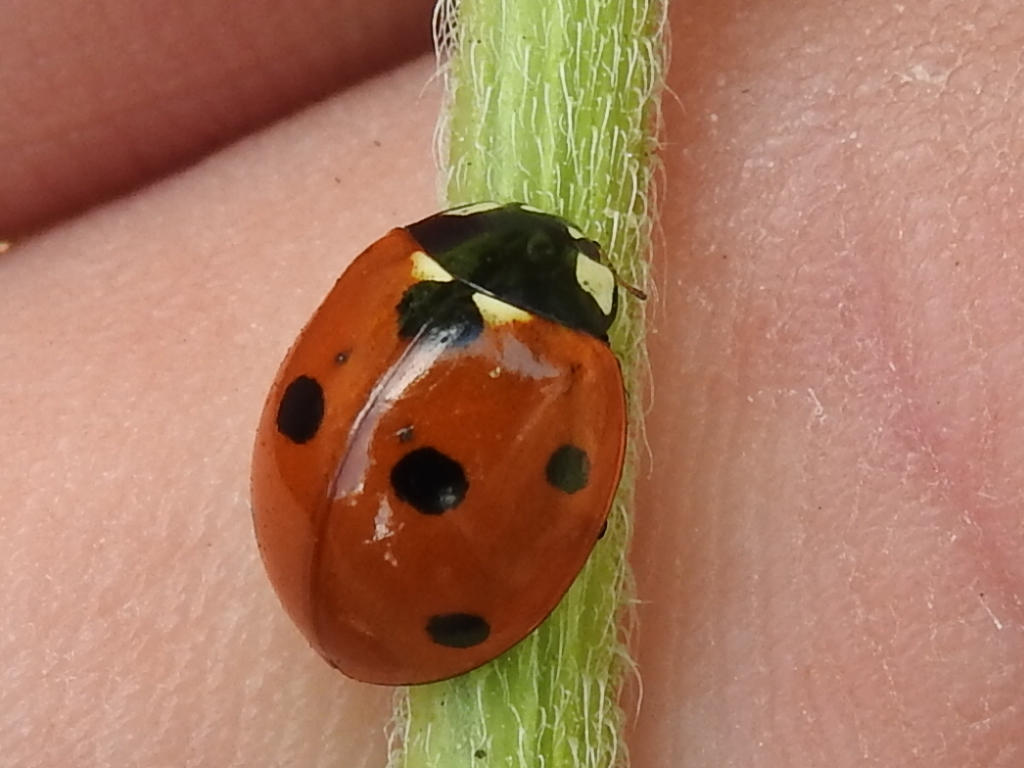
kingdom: Animalia
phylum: Arthropoda
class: Insecta
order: Coleoptera
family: Coccinellidae
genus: Coccinella
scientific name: Coccinella septempunctata
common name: Sevenspotted lady beetle
